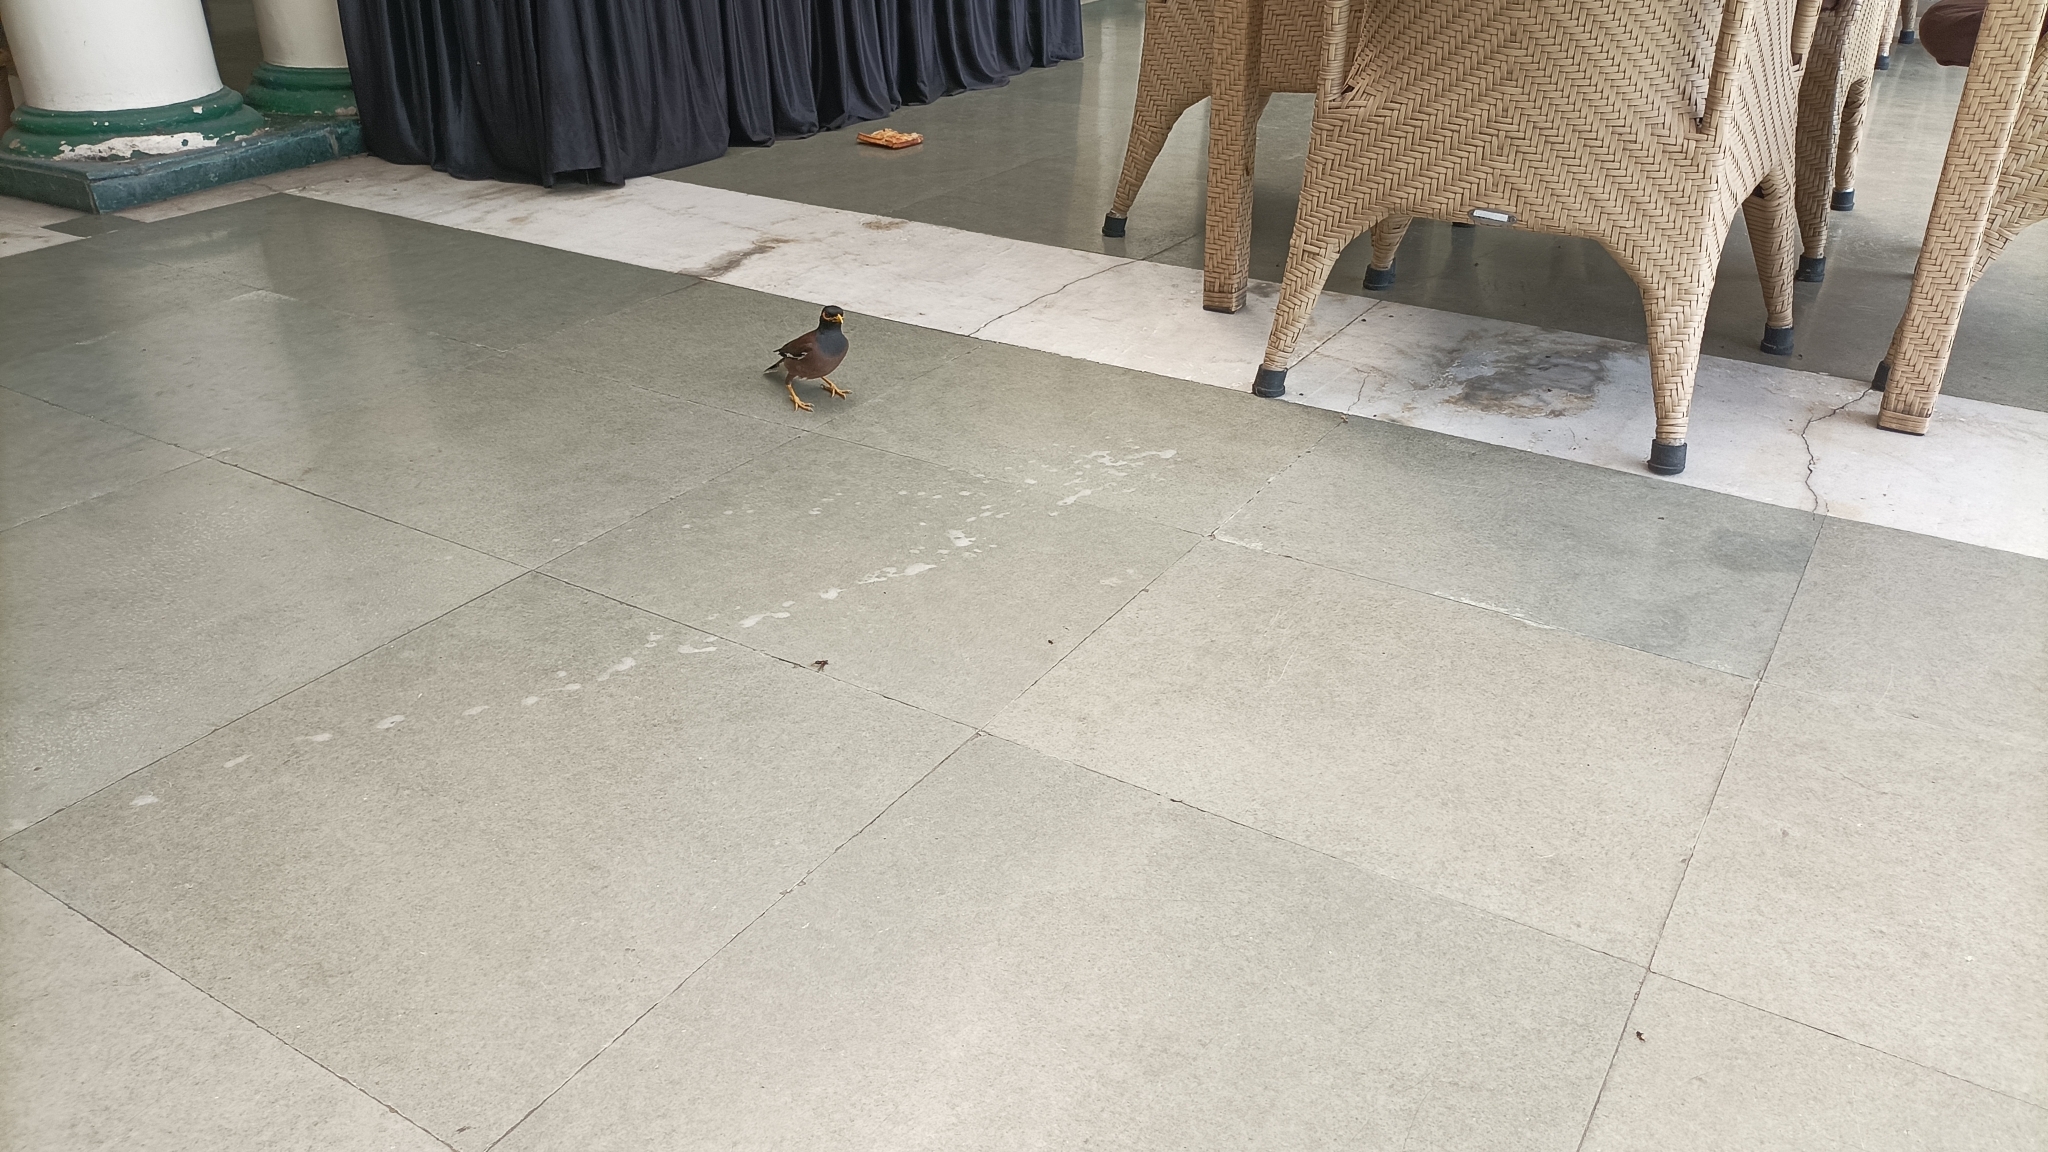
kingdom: Animalia
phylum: Chordata
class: Aves
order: Passeriformes
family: Sturnidae
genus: Acridotheres
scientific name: Acridotheres tristis
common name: Common myna
